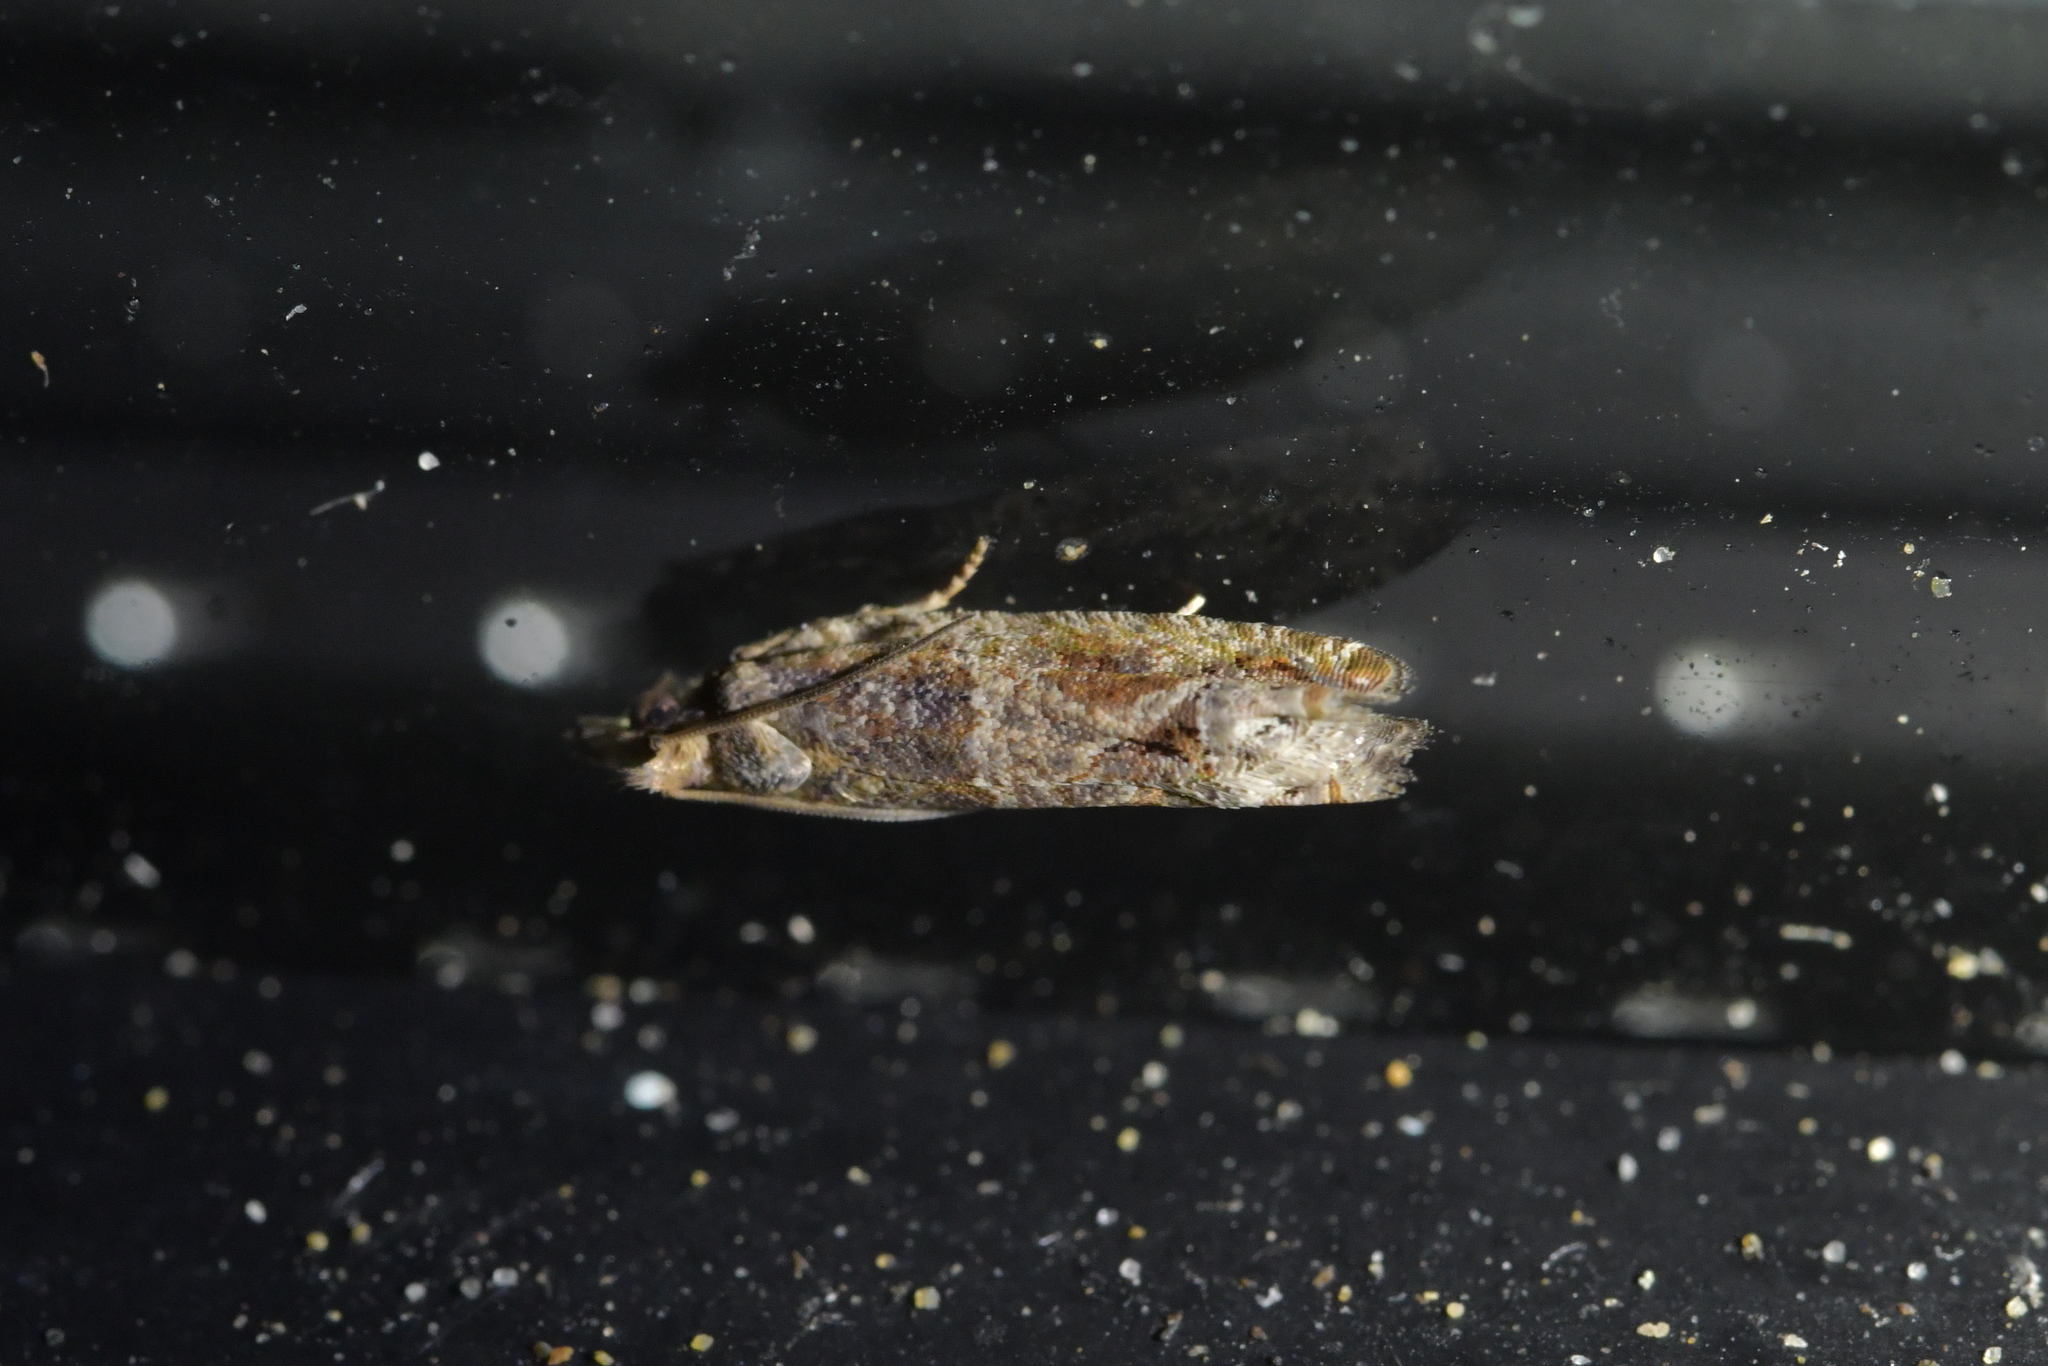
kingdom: Animalia
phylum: Arthropoda
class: Insecta
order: Lepidoptera
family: Tortricidae
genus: Crocidosema
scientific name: Crocidosema plebejana
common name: Southern bell
